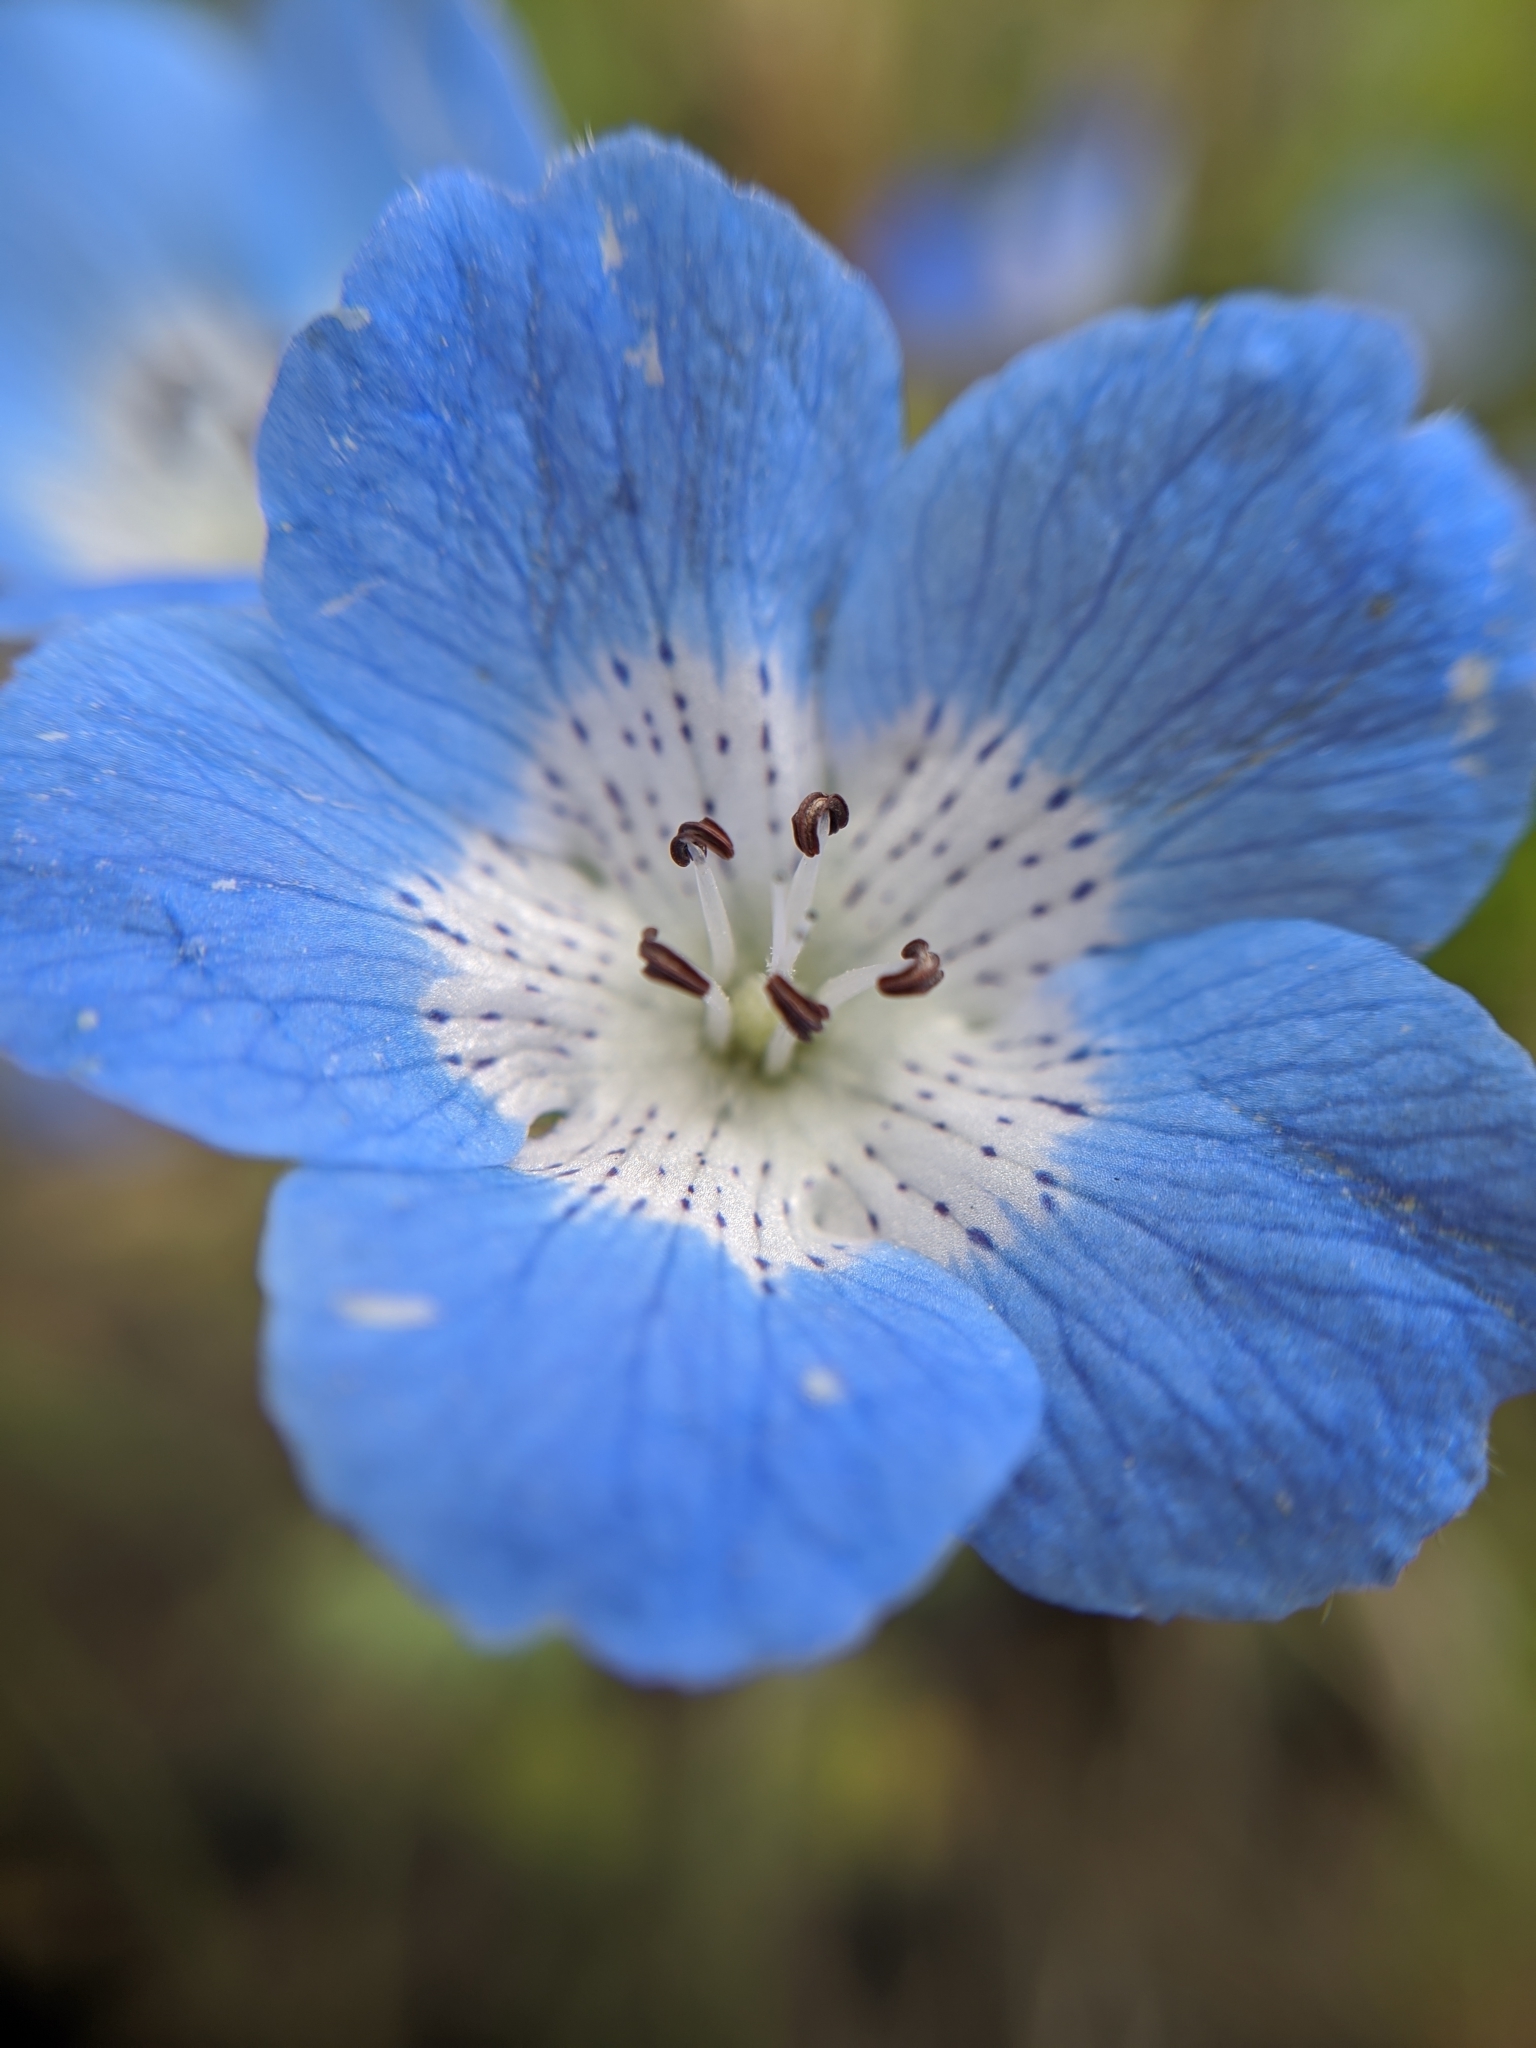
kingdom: Plantae
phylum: Tracheophyta
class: Magnoliopsida
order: Boraginales
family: Hydrophyllaceae
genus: Nemophila
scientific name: Nemophila menziesii
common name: Baby's-blue-eyes
